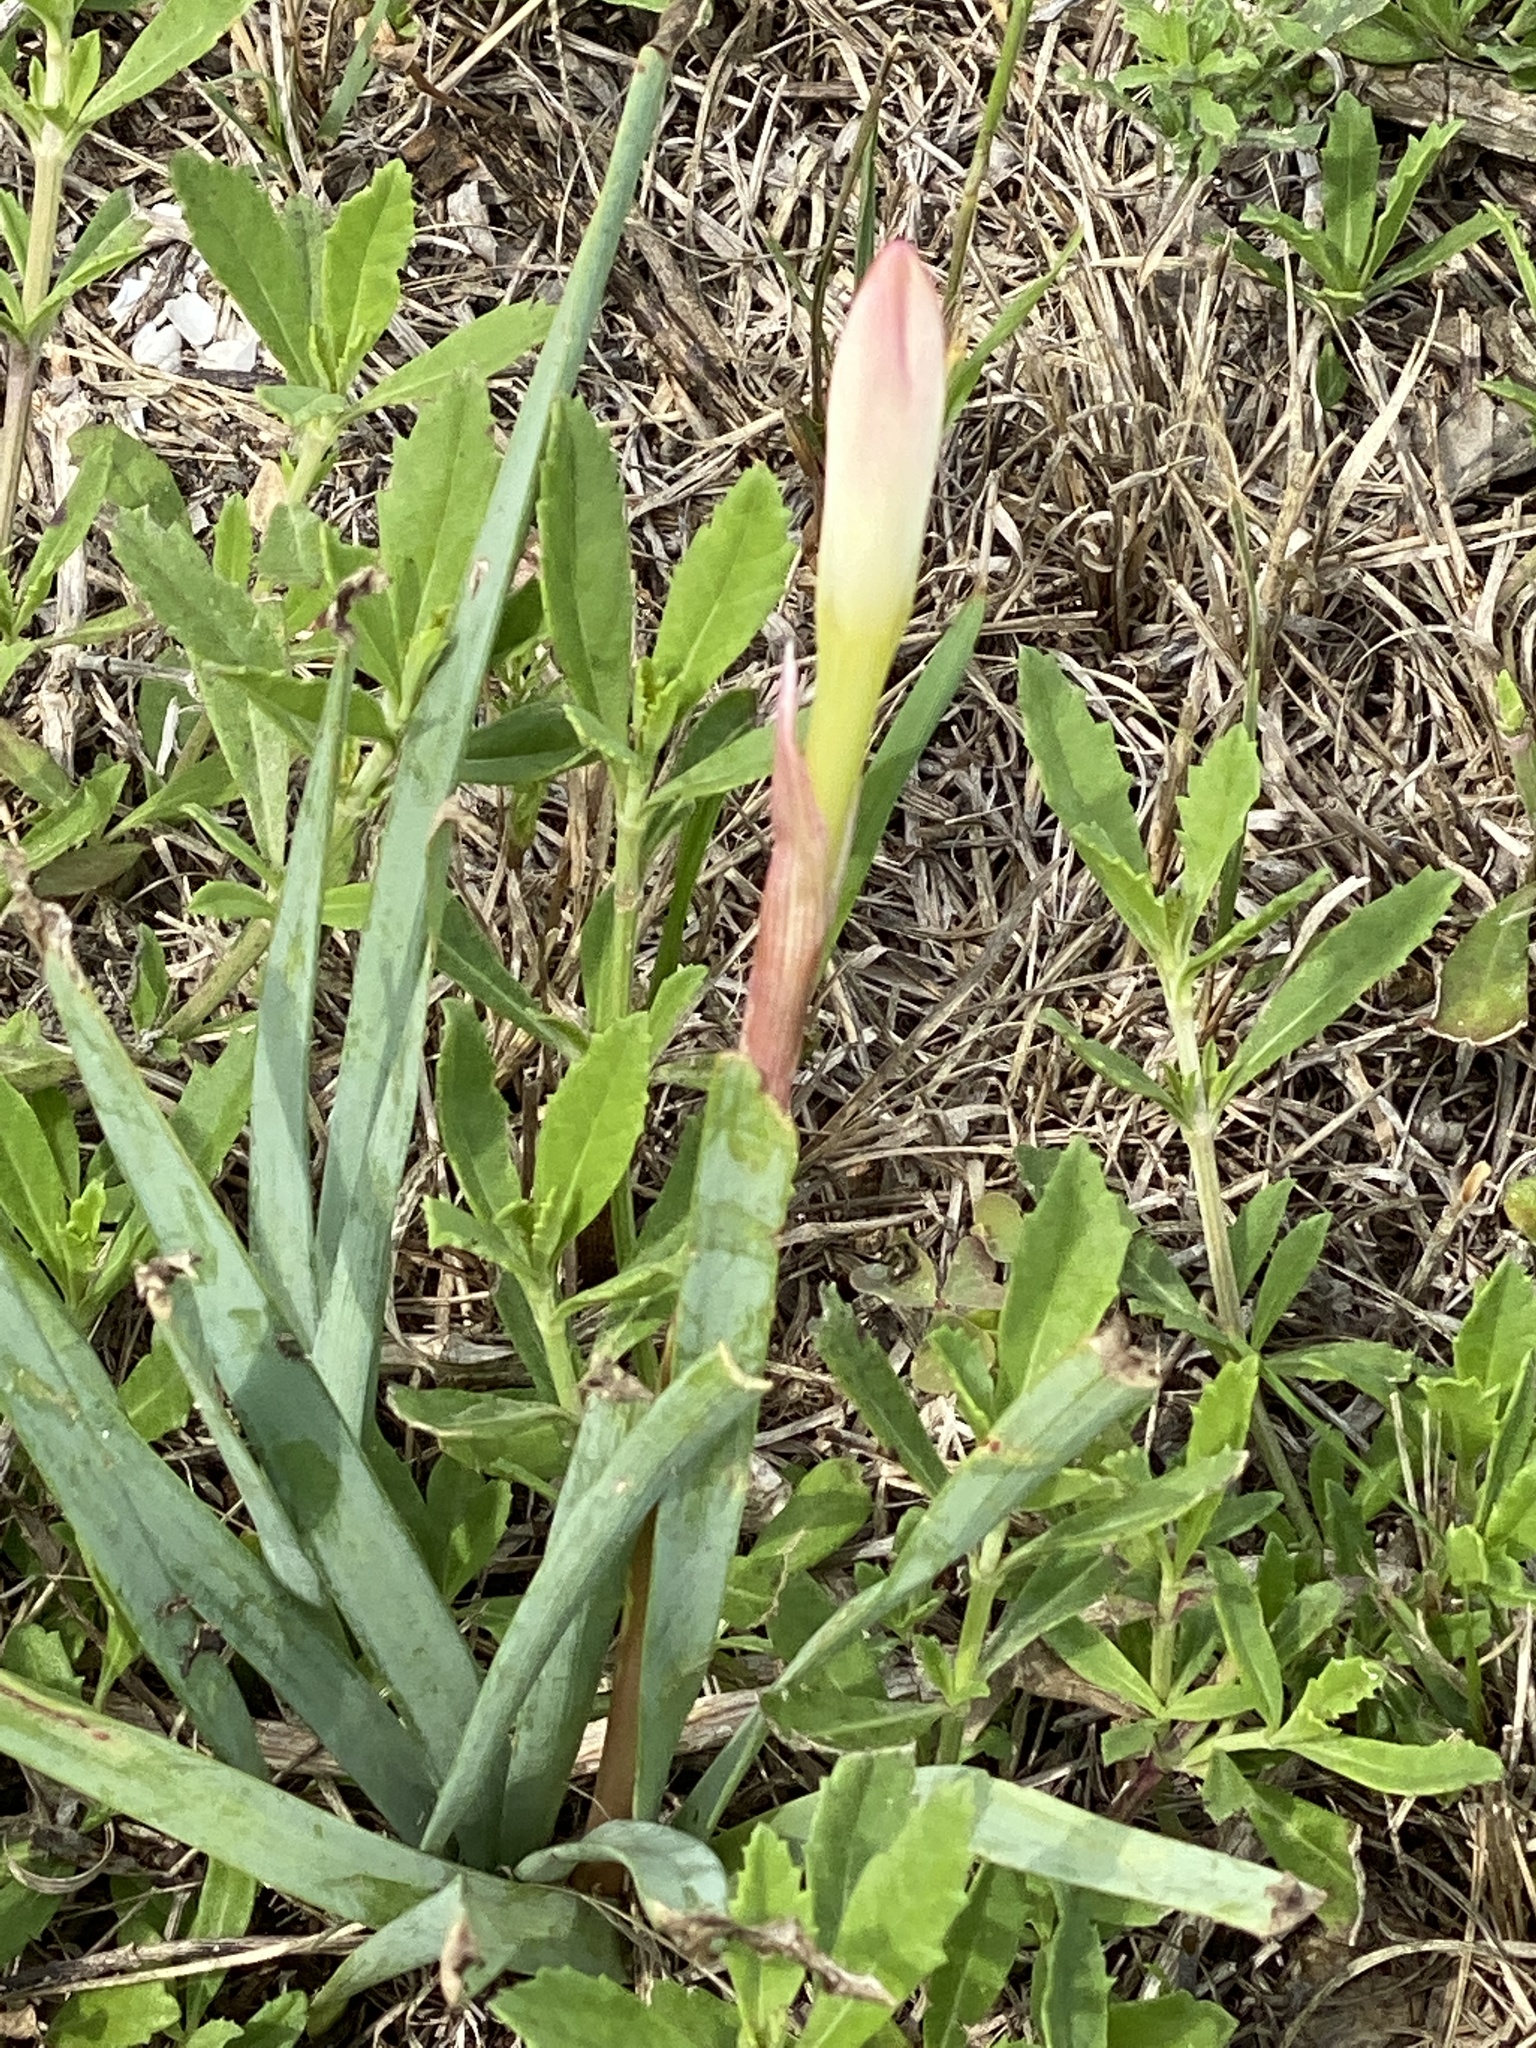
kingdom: Plantae
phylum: Tracheophyta
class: Liliopsida
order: Asparagales
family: Amaryllidaceae
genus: Zephyranthes
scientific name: Zephyranthes drummondii
